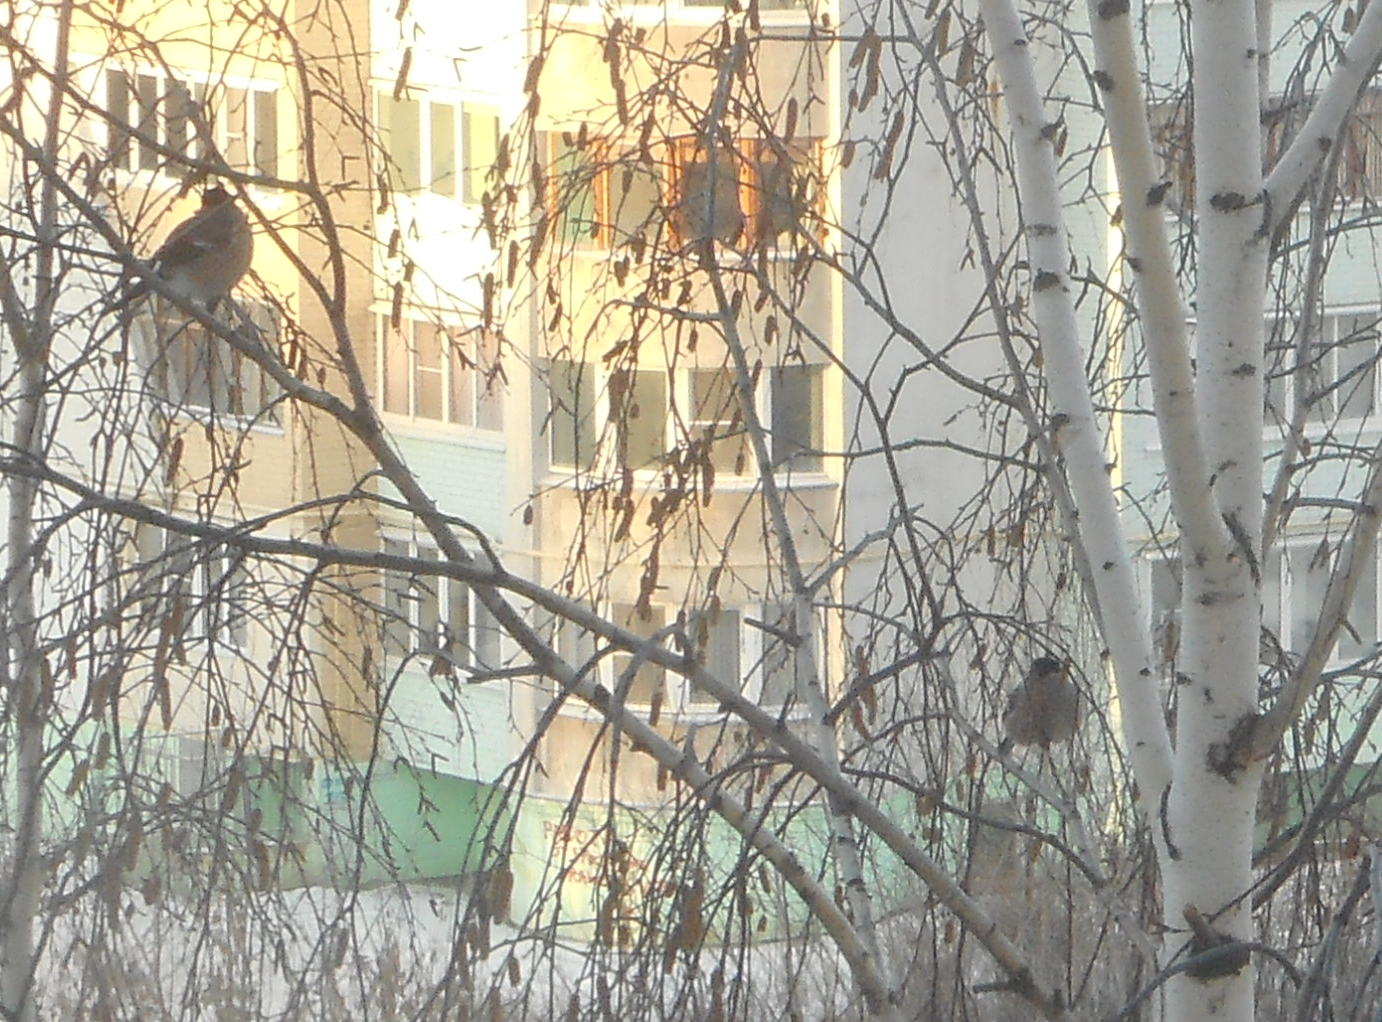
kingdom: Animalia
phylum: Chordata
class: Aves
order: Passeriformes
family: Fringillidae
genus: Pyrrhula
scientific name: Pyrrhula pyrrhula
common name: Eurasian bullfinch
